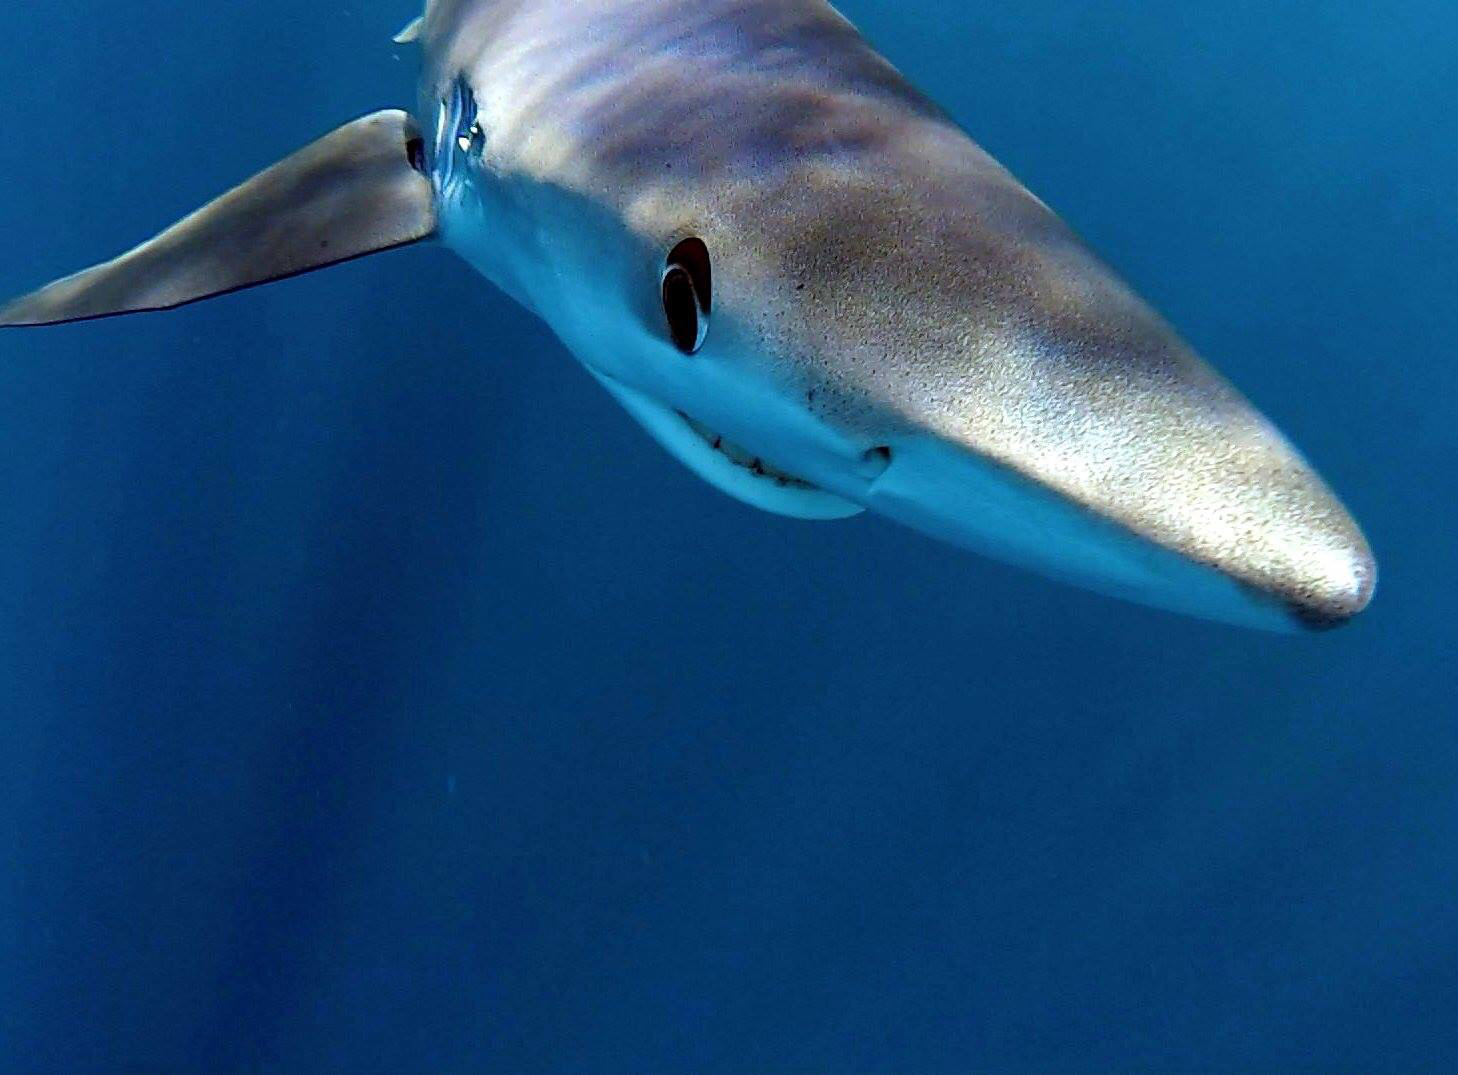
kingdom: Animalia
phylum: Chordata
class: Elasmobranchii
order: Carcharhiniformes
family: Carcharhinidae
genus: Prionace
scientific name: Prionace glauca
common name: Blue shark
